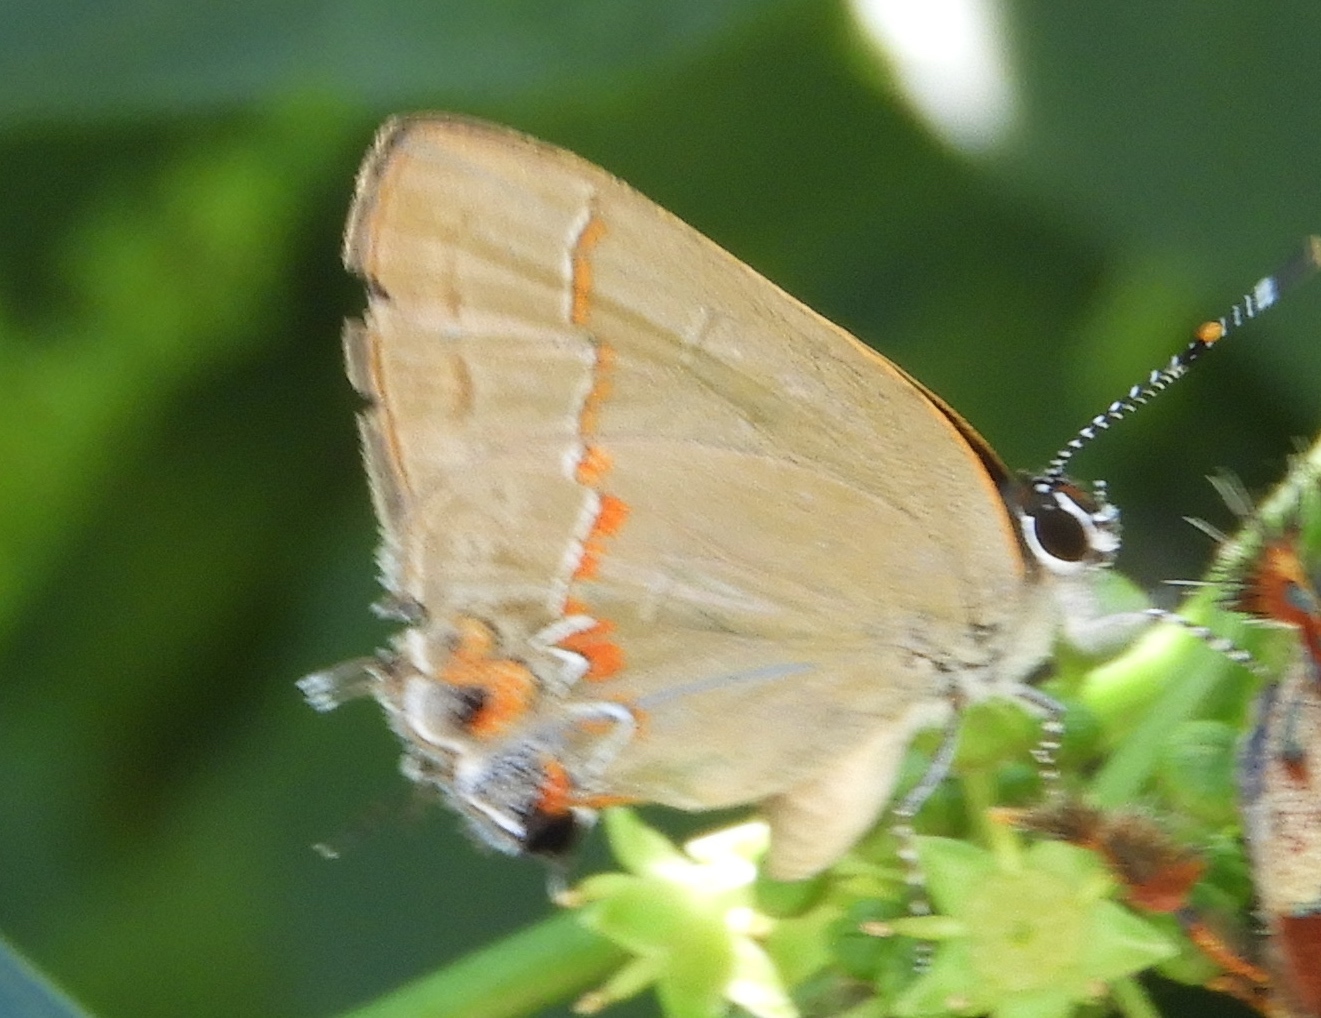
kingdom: Animalia
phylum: Arthropoda
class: Insecta
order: Lepidoptera
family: Lycaenidae
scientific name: Lycaenidae
